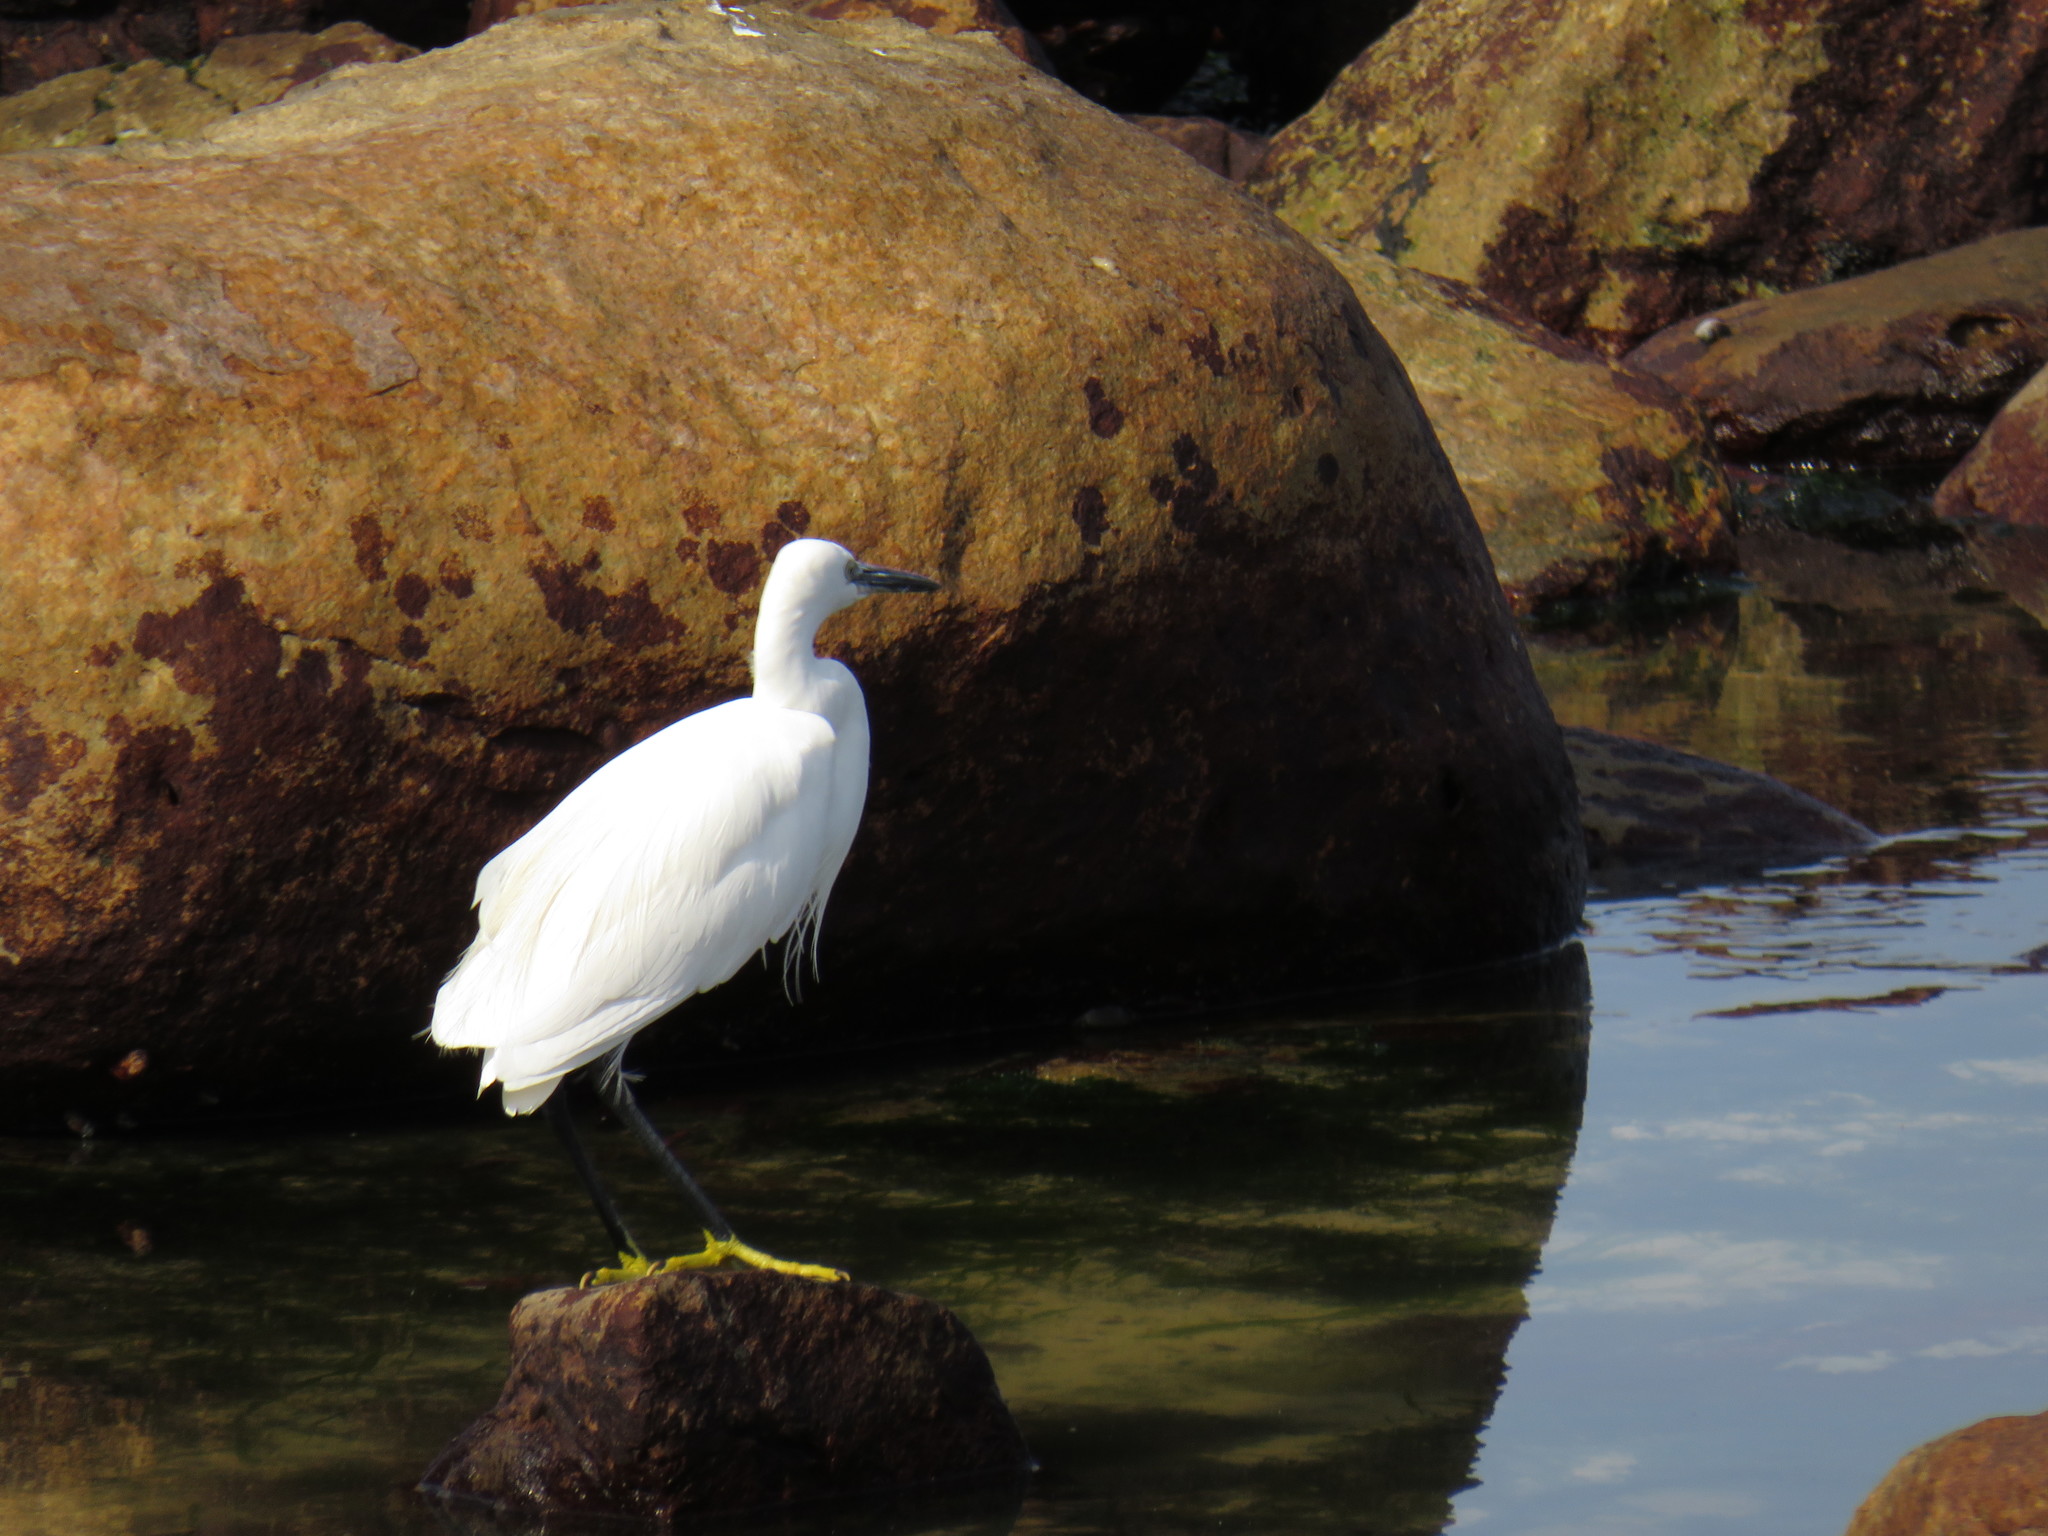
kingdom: Animalia
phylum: Chordata
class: Aves
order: Pelecaniformes
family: Ardeidae
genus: Egretta
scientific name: Egretta garzetta
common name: Little egret
